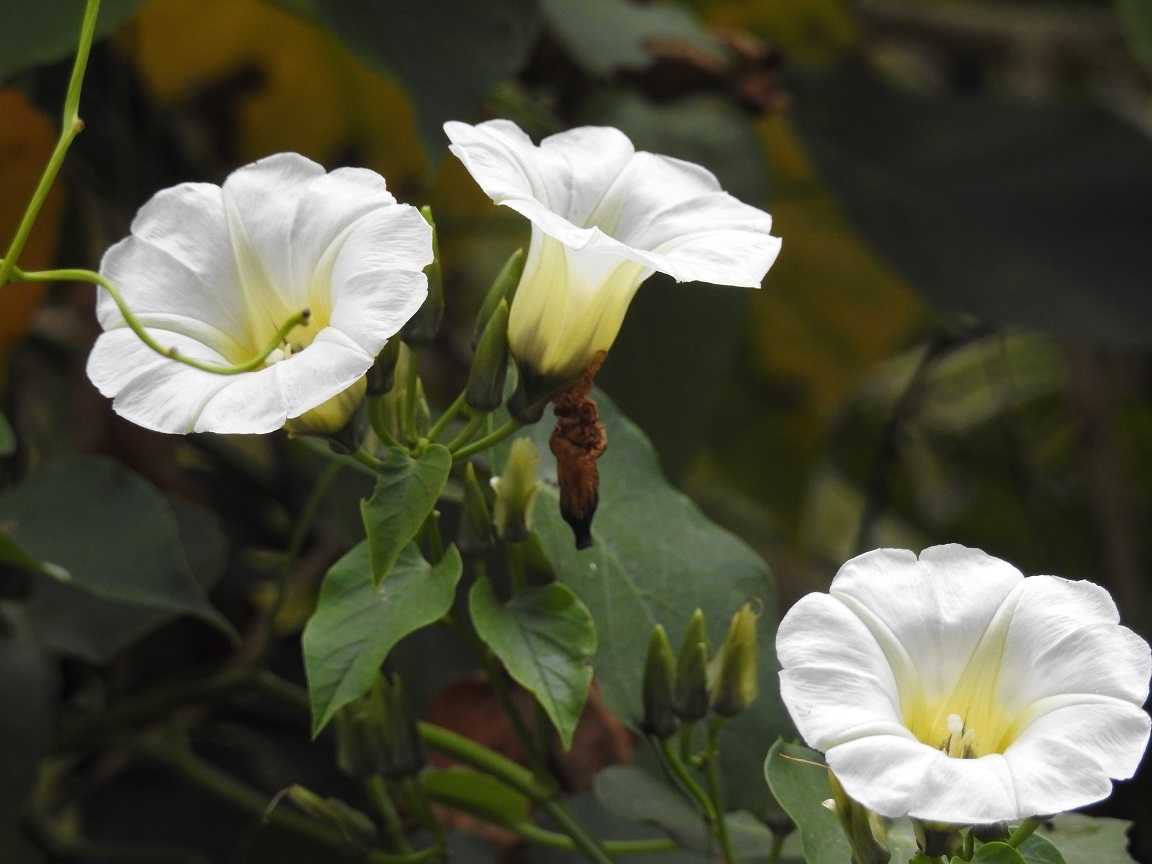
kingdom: Plantae
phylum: Tracheophyta
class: Magnoliopsida
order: Solanales
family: Convolvulaceae
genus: Ipomoea
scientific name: Ipomoea corymbosa
